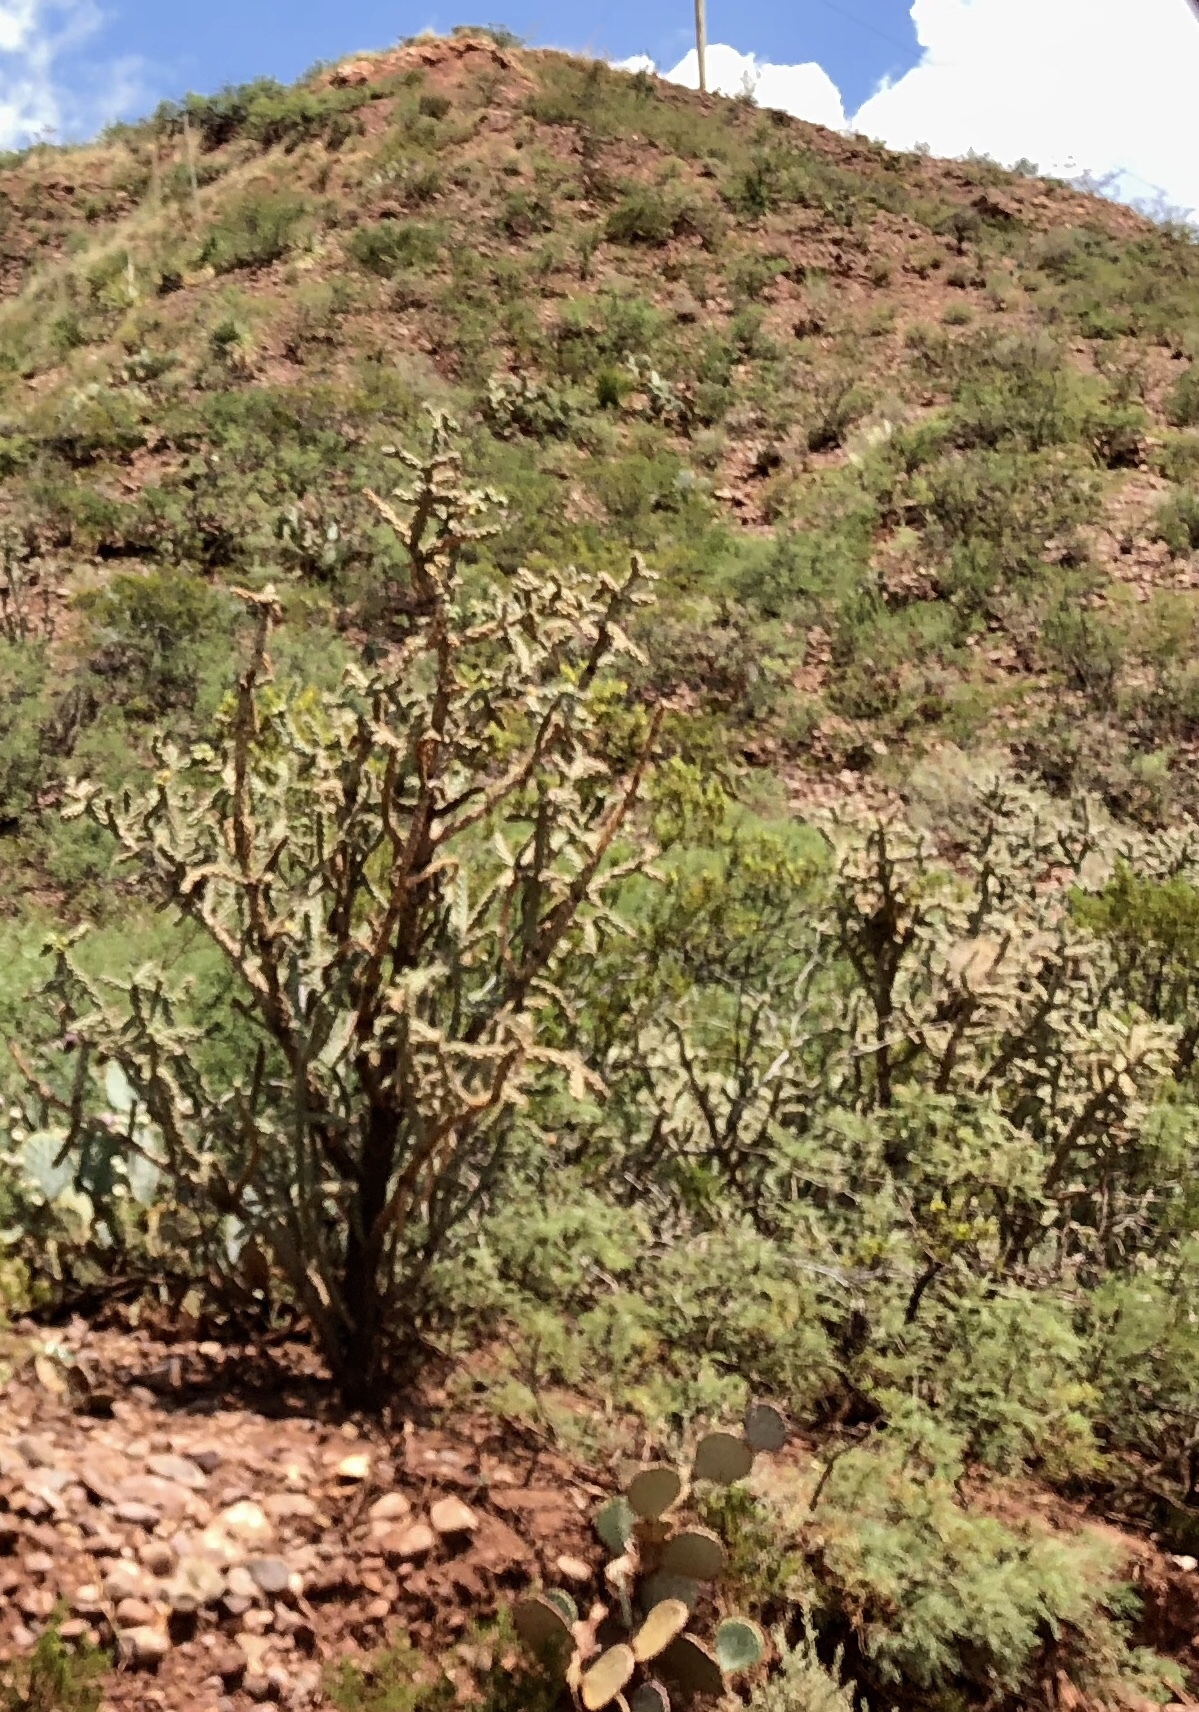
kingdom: Plantae
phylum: Tracheophyta
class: Magnoliopsida
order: Caryophyllales
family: Cactaceae
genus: Cylindropuntia
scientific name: Cylindropuntia imbricata
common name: Candelabrum cactus
